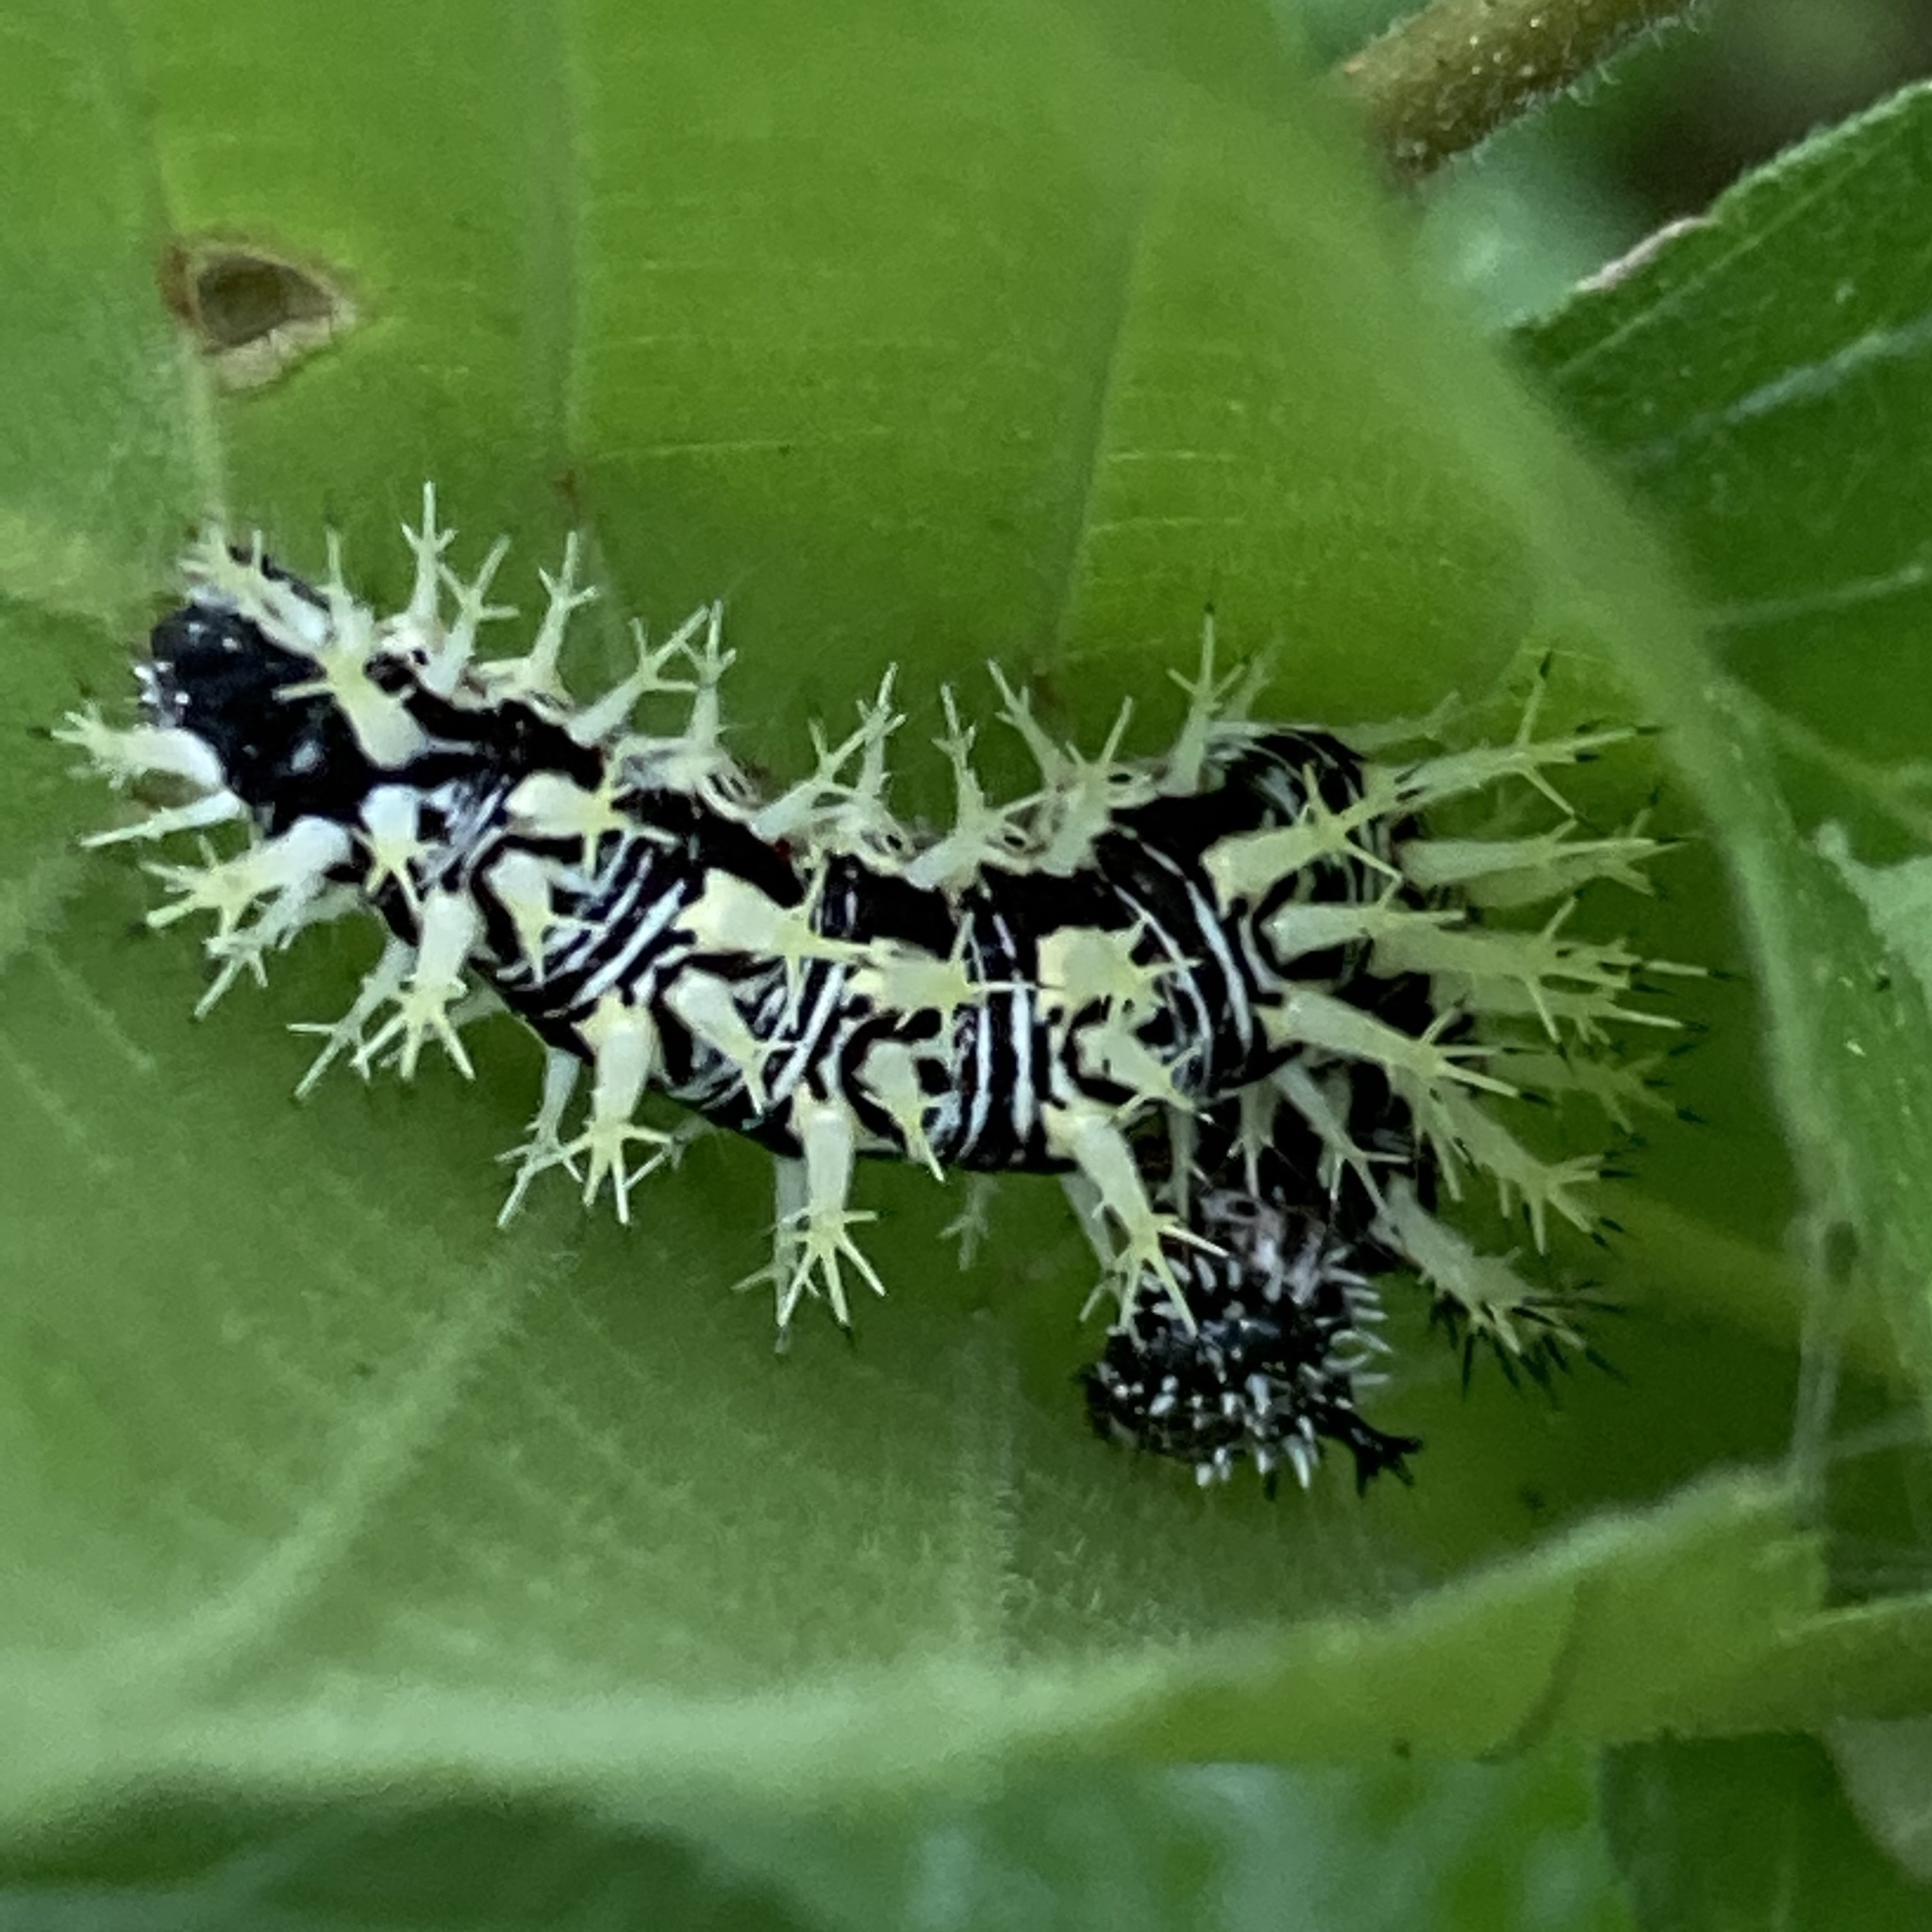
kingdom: Animalia
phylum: Arthropoda
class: Insecta
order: Lepidoptera
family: Nymphalidae
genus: Polygonia
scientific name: Polygonia comma
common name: Eastern comma
